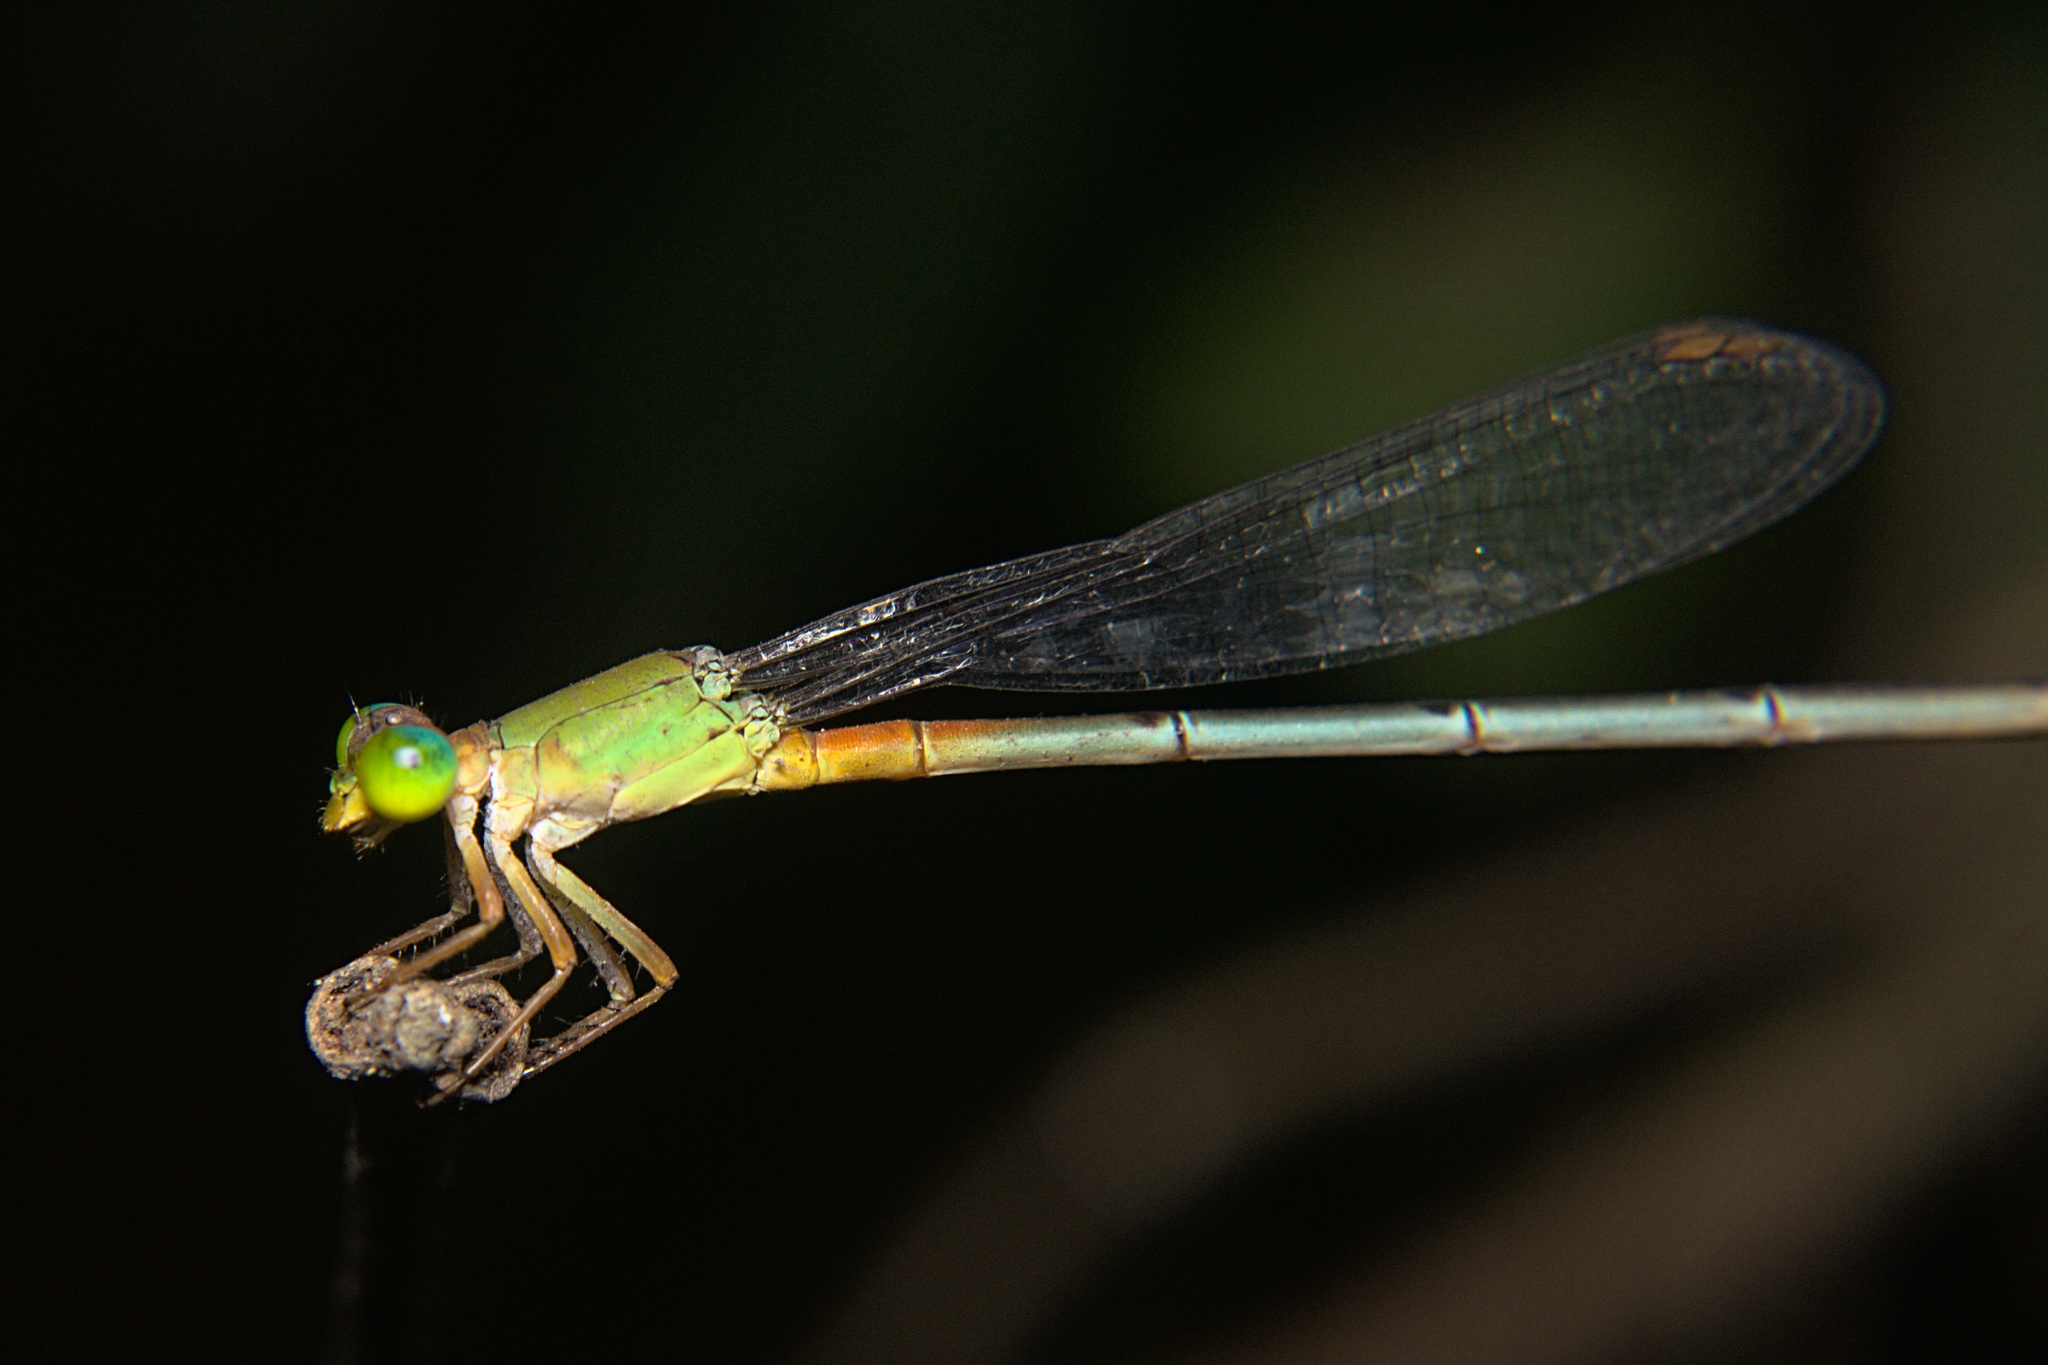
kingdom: Animalia
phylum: Arthropoda
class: Insecta
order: Odonata
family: Coenagrionidae
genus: Ceriagrion
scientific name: Ceriagrion cerinorubellum
